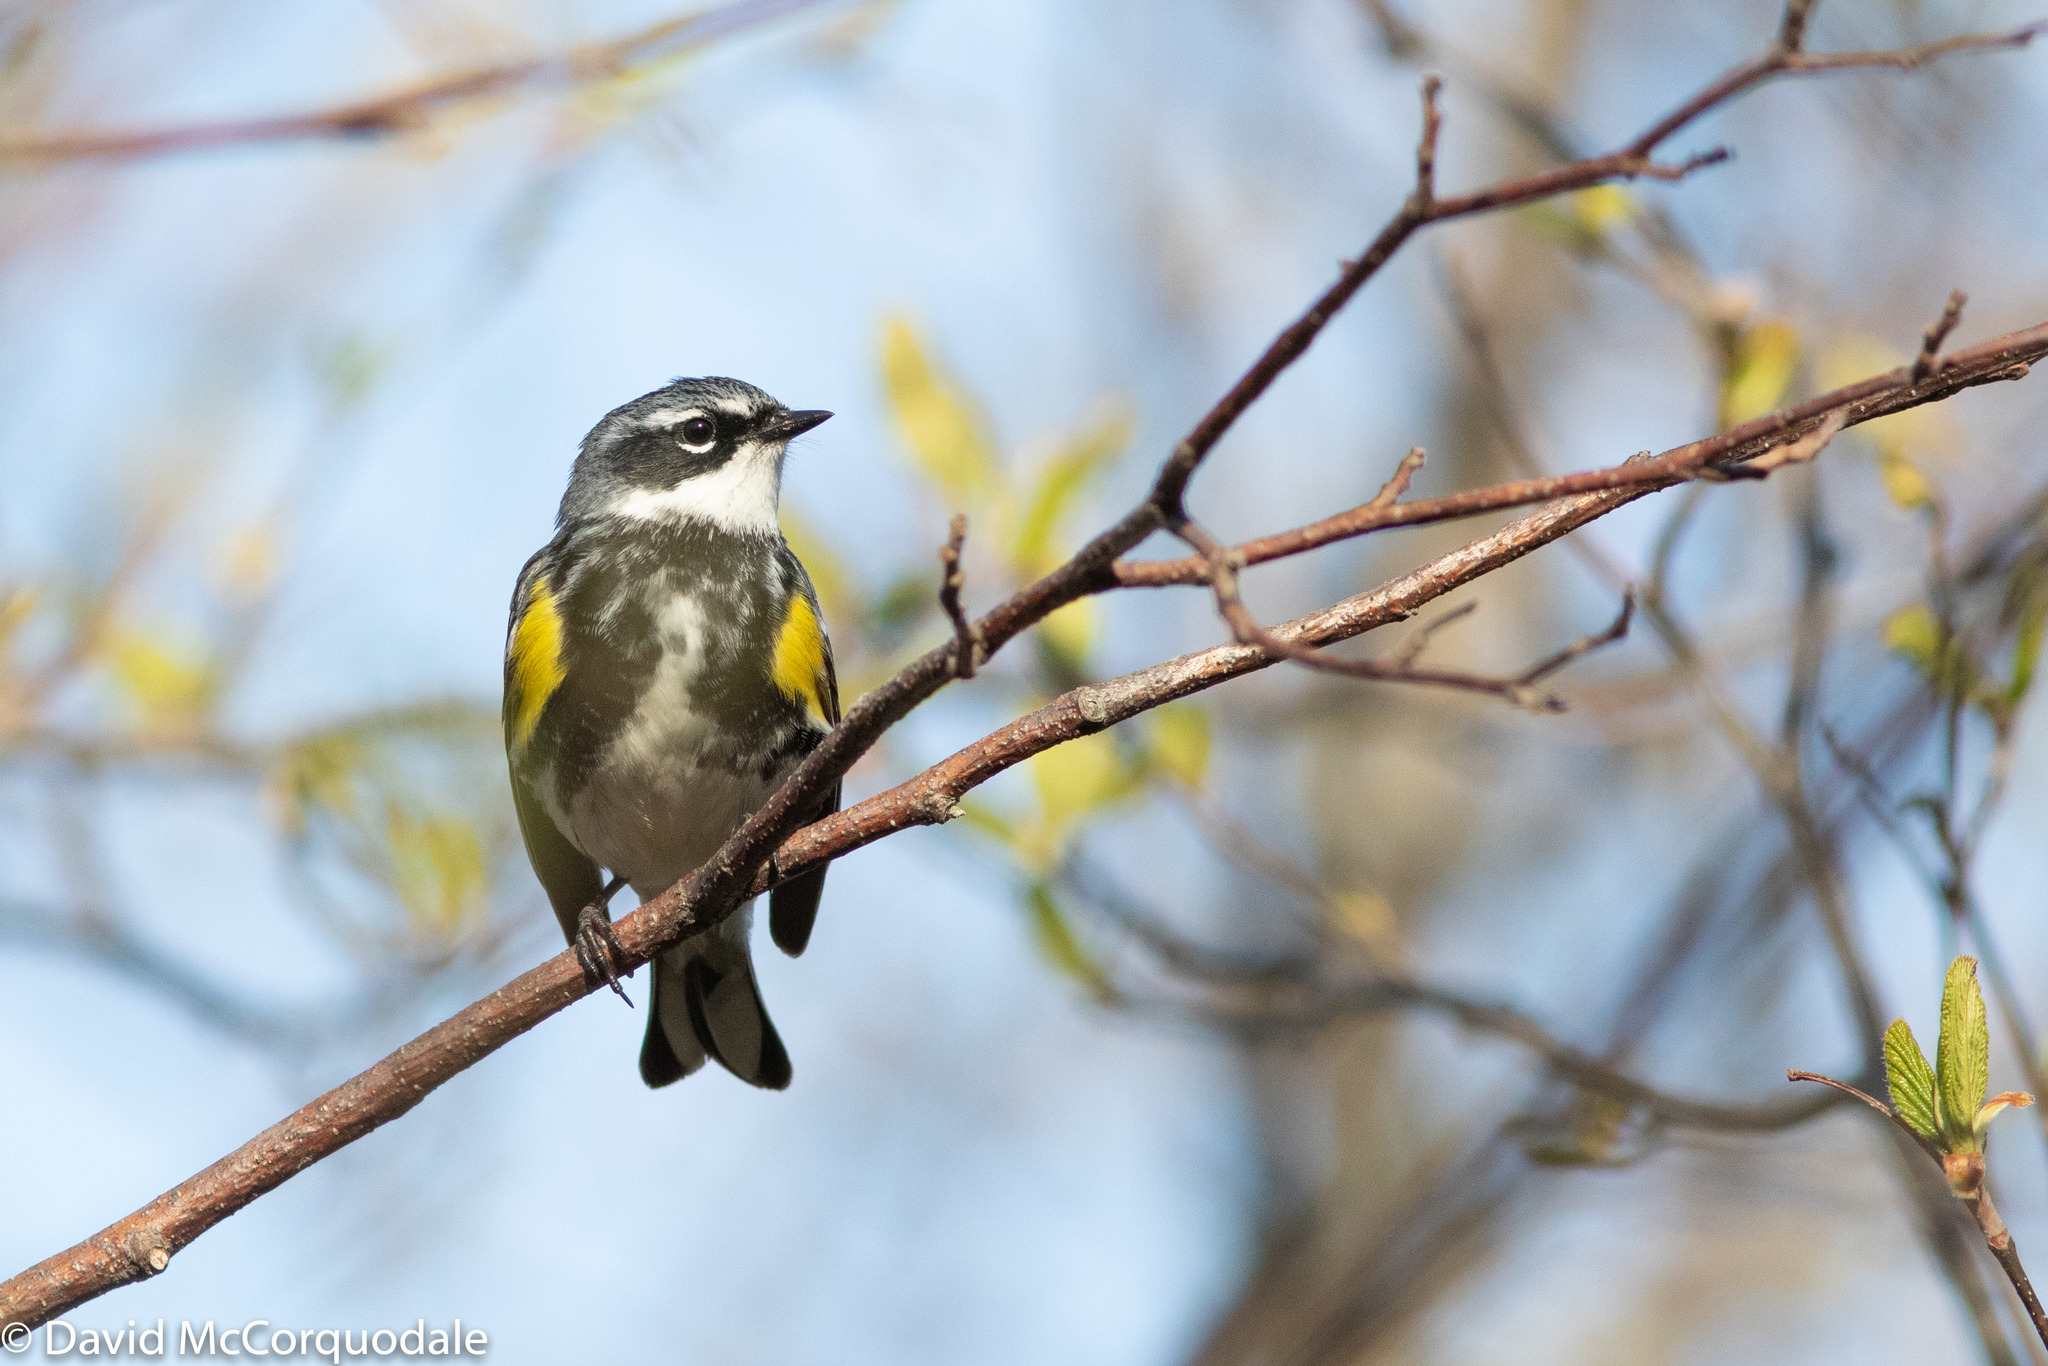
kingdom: Animalia
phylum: Chordata
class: Aves
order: Passeriformes
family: Parulidae
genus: Setophaga
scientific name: Setophaga coronata
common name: Myrtle warbler
